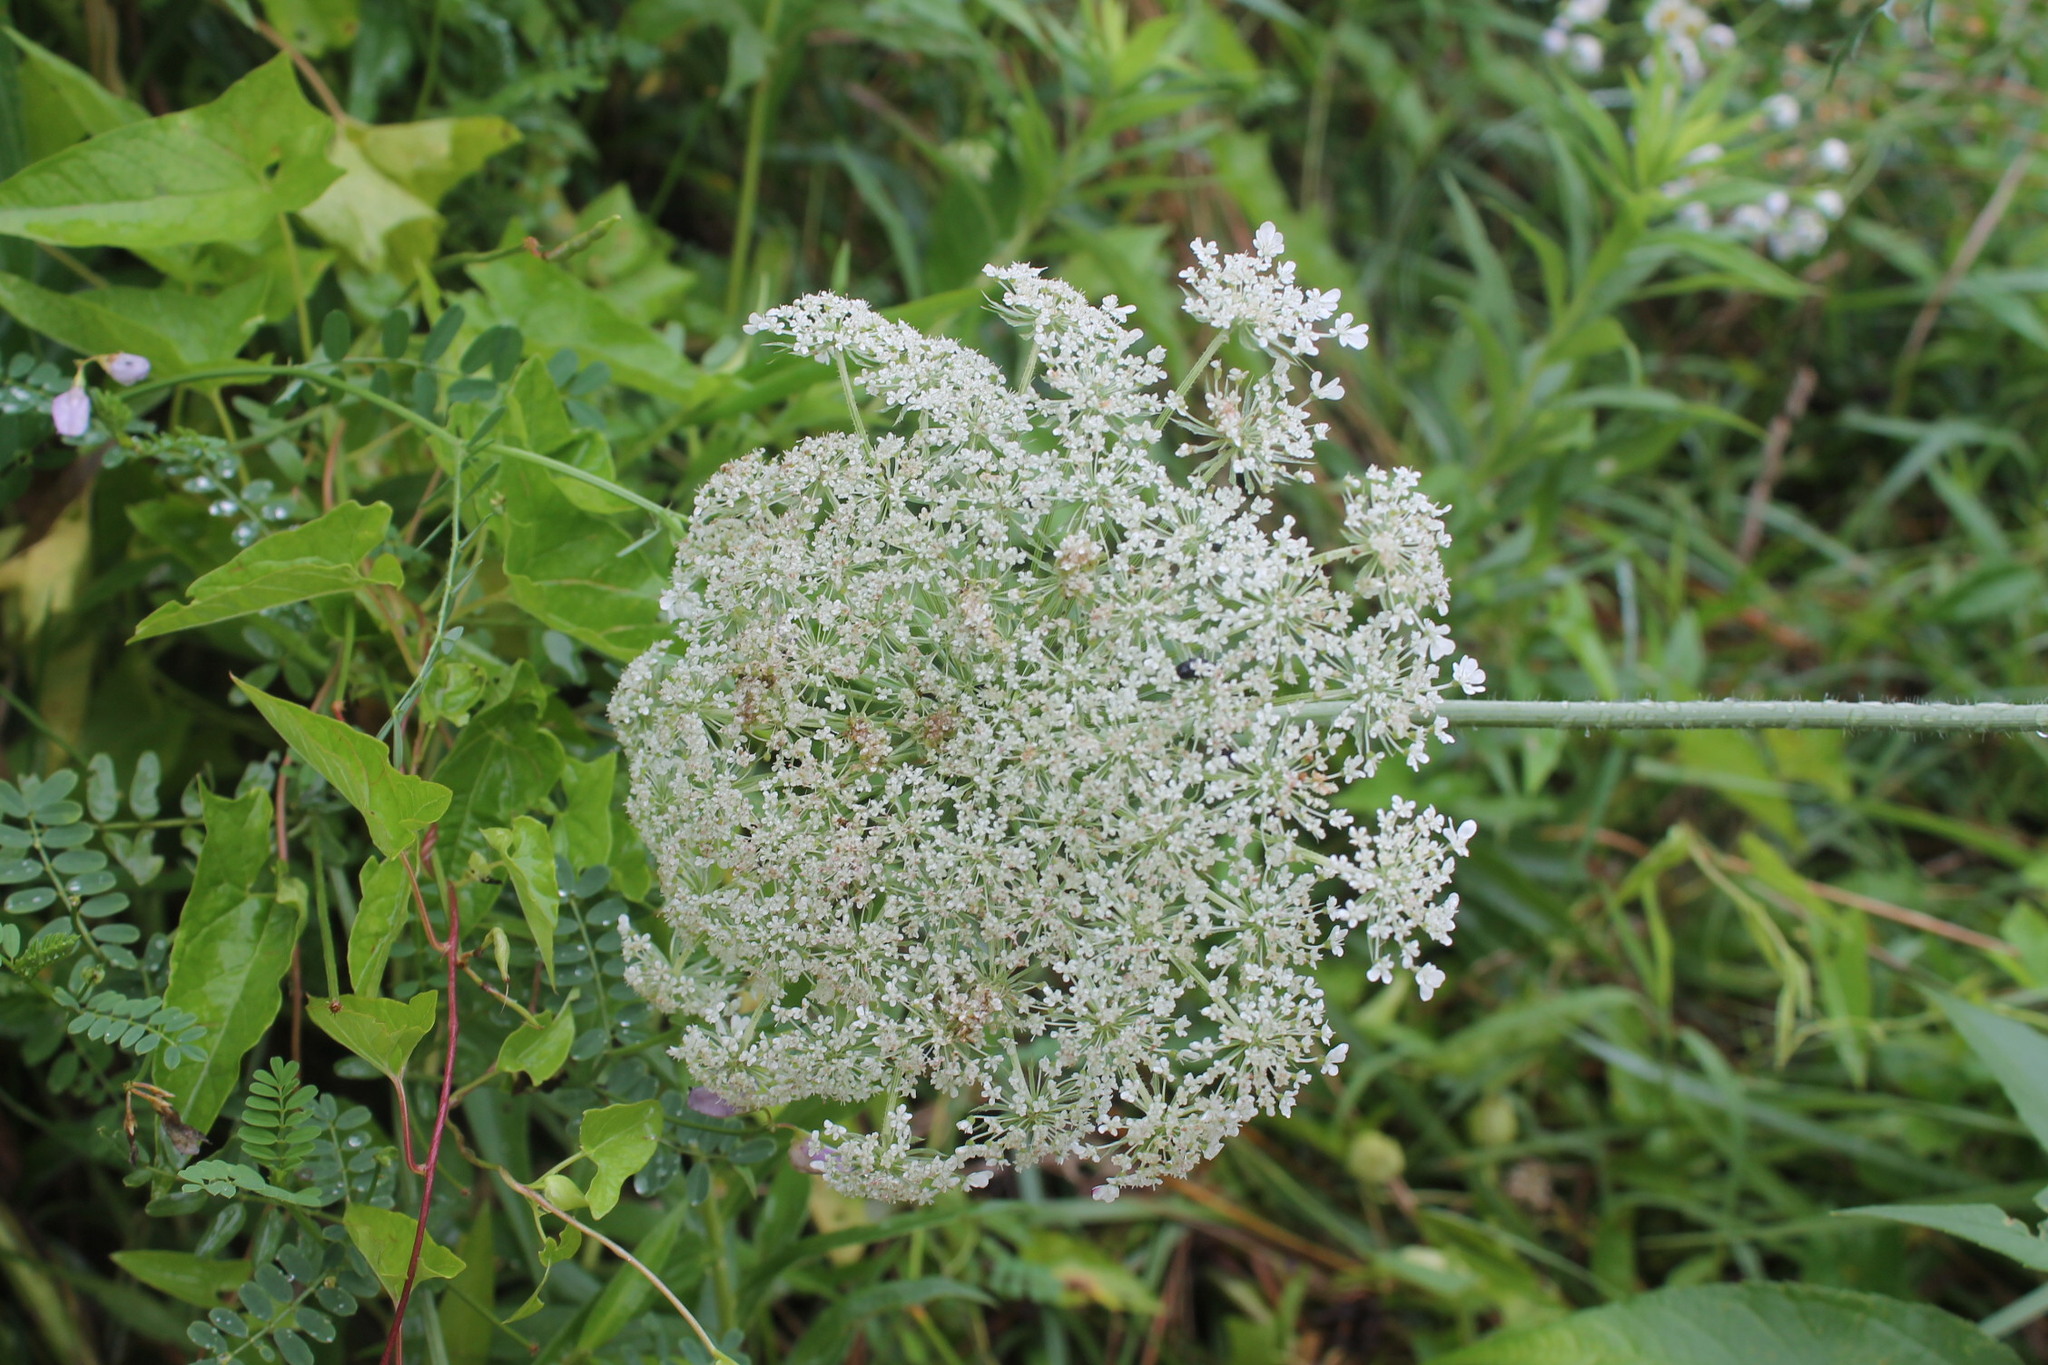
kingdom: Plantae
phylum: Tracheophyta
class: Magnoliopsida
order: Apiales
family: Apiaceae
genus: Daucus
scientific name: Daucus carota
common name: Wild carrot
